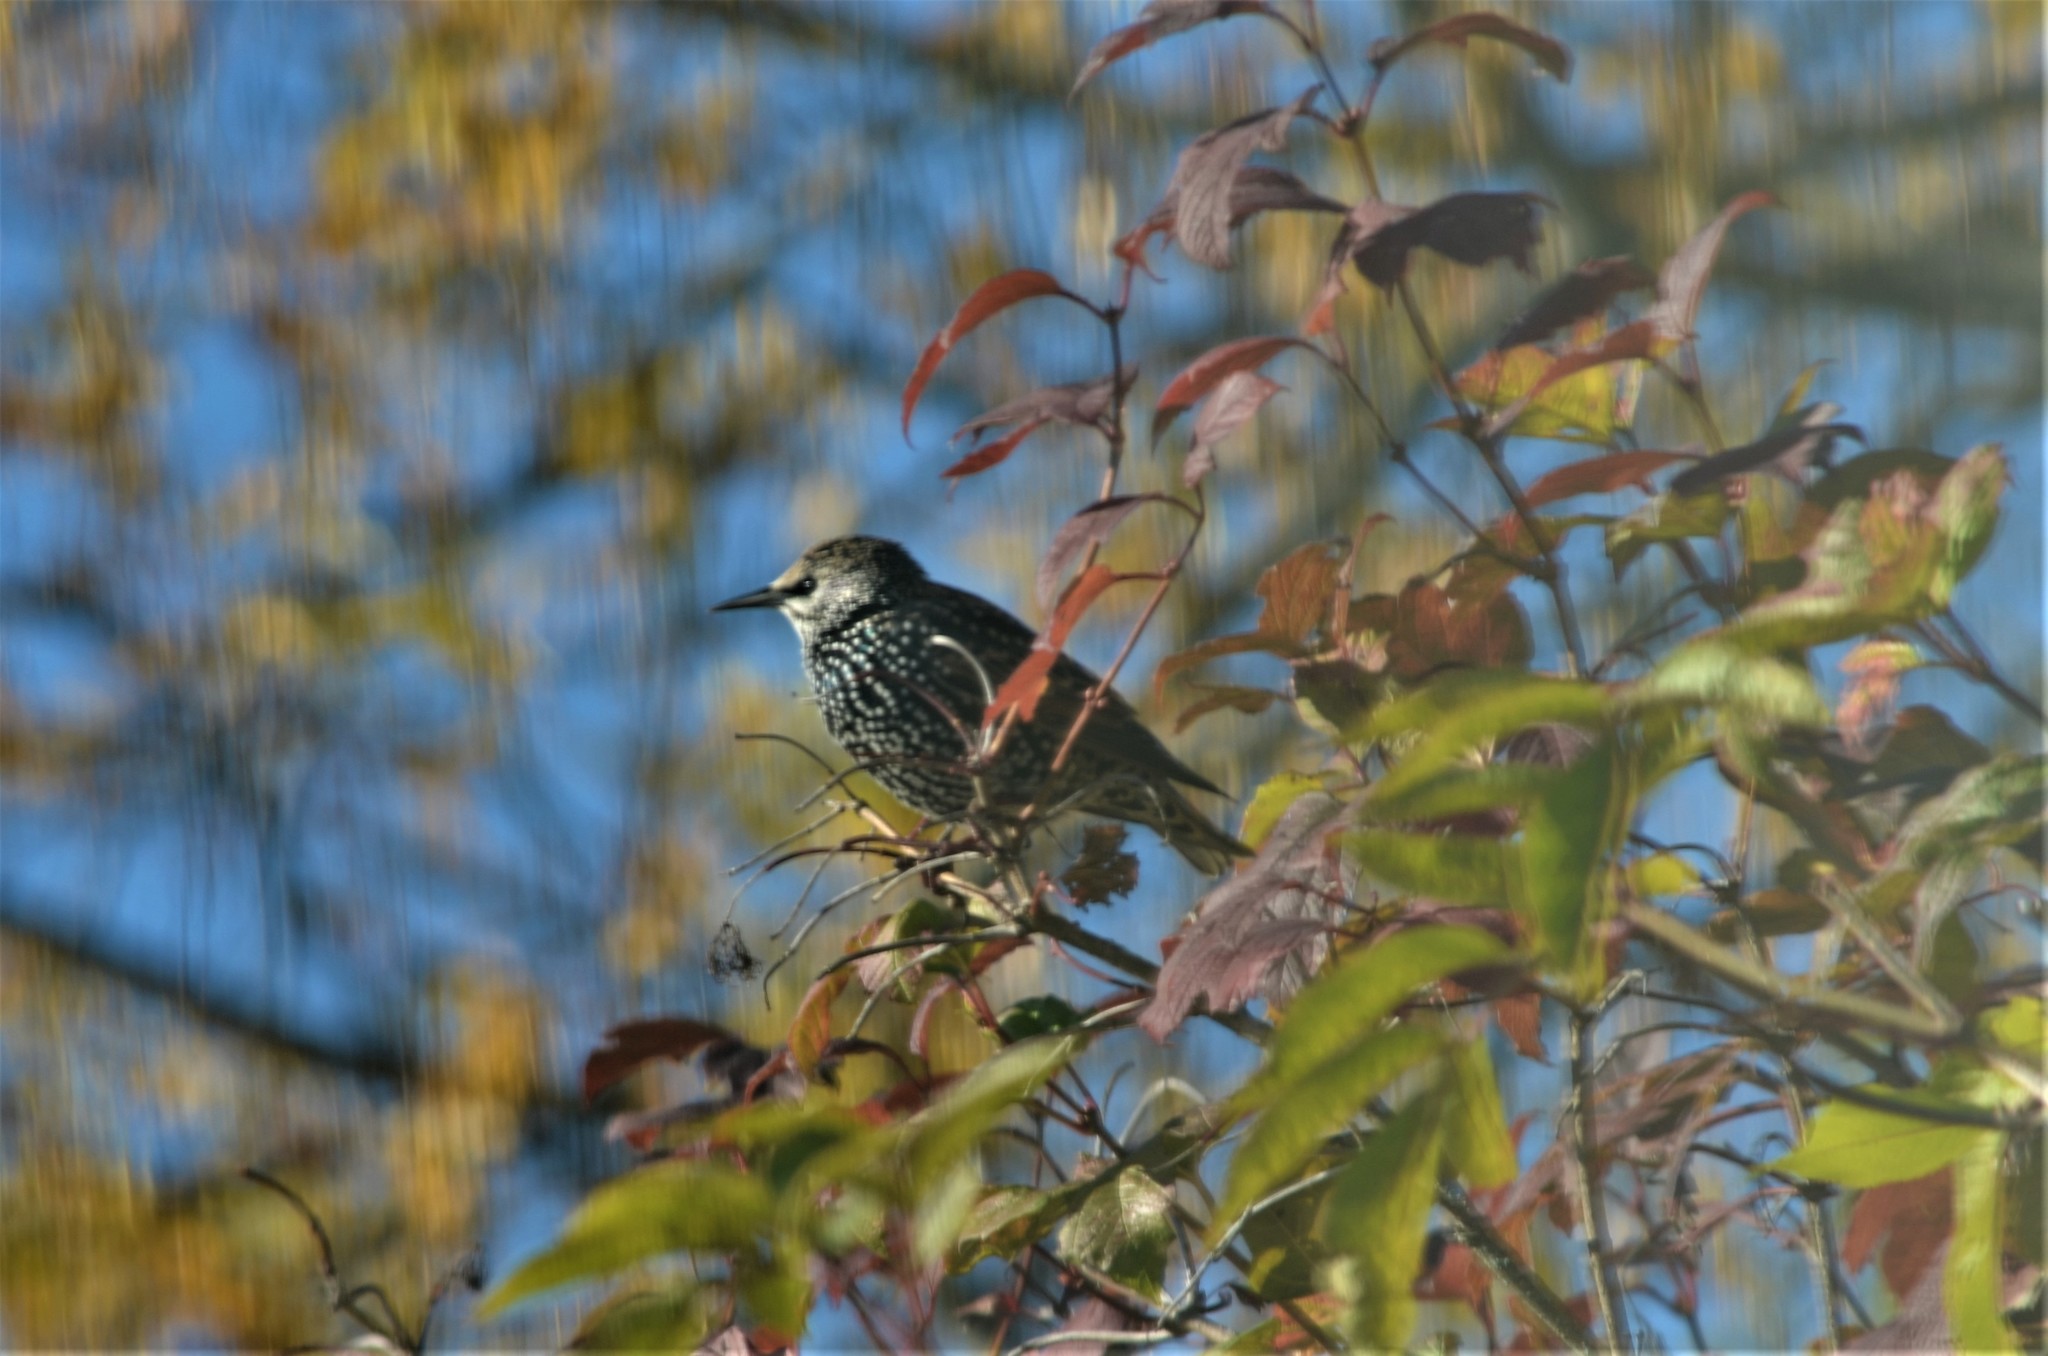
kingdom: Animalia
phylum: Chordata
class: Aves
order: Passeriformes
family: Sturnidae
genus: Sturnus
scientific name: Sturnus vulgaris
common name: Common starling
